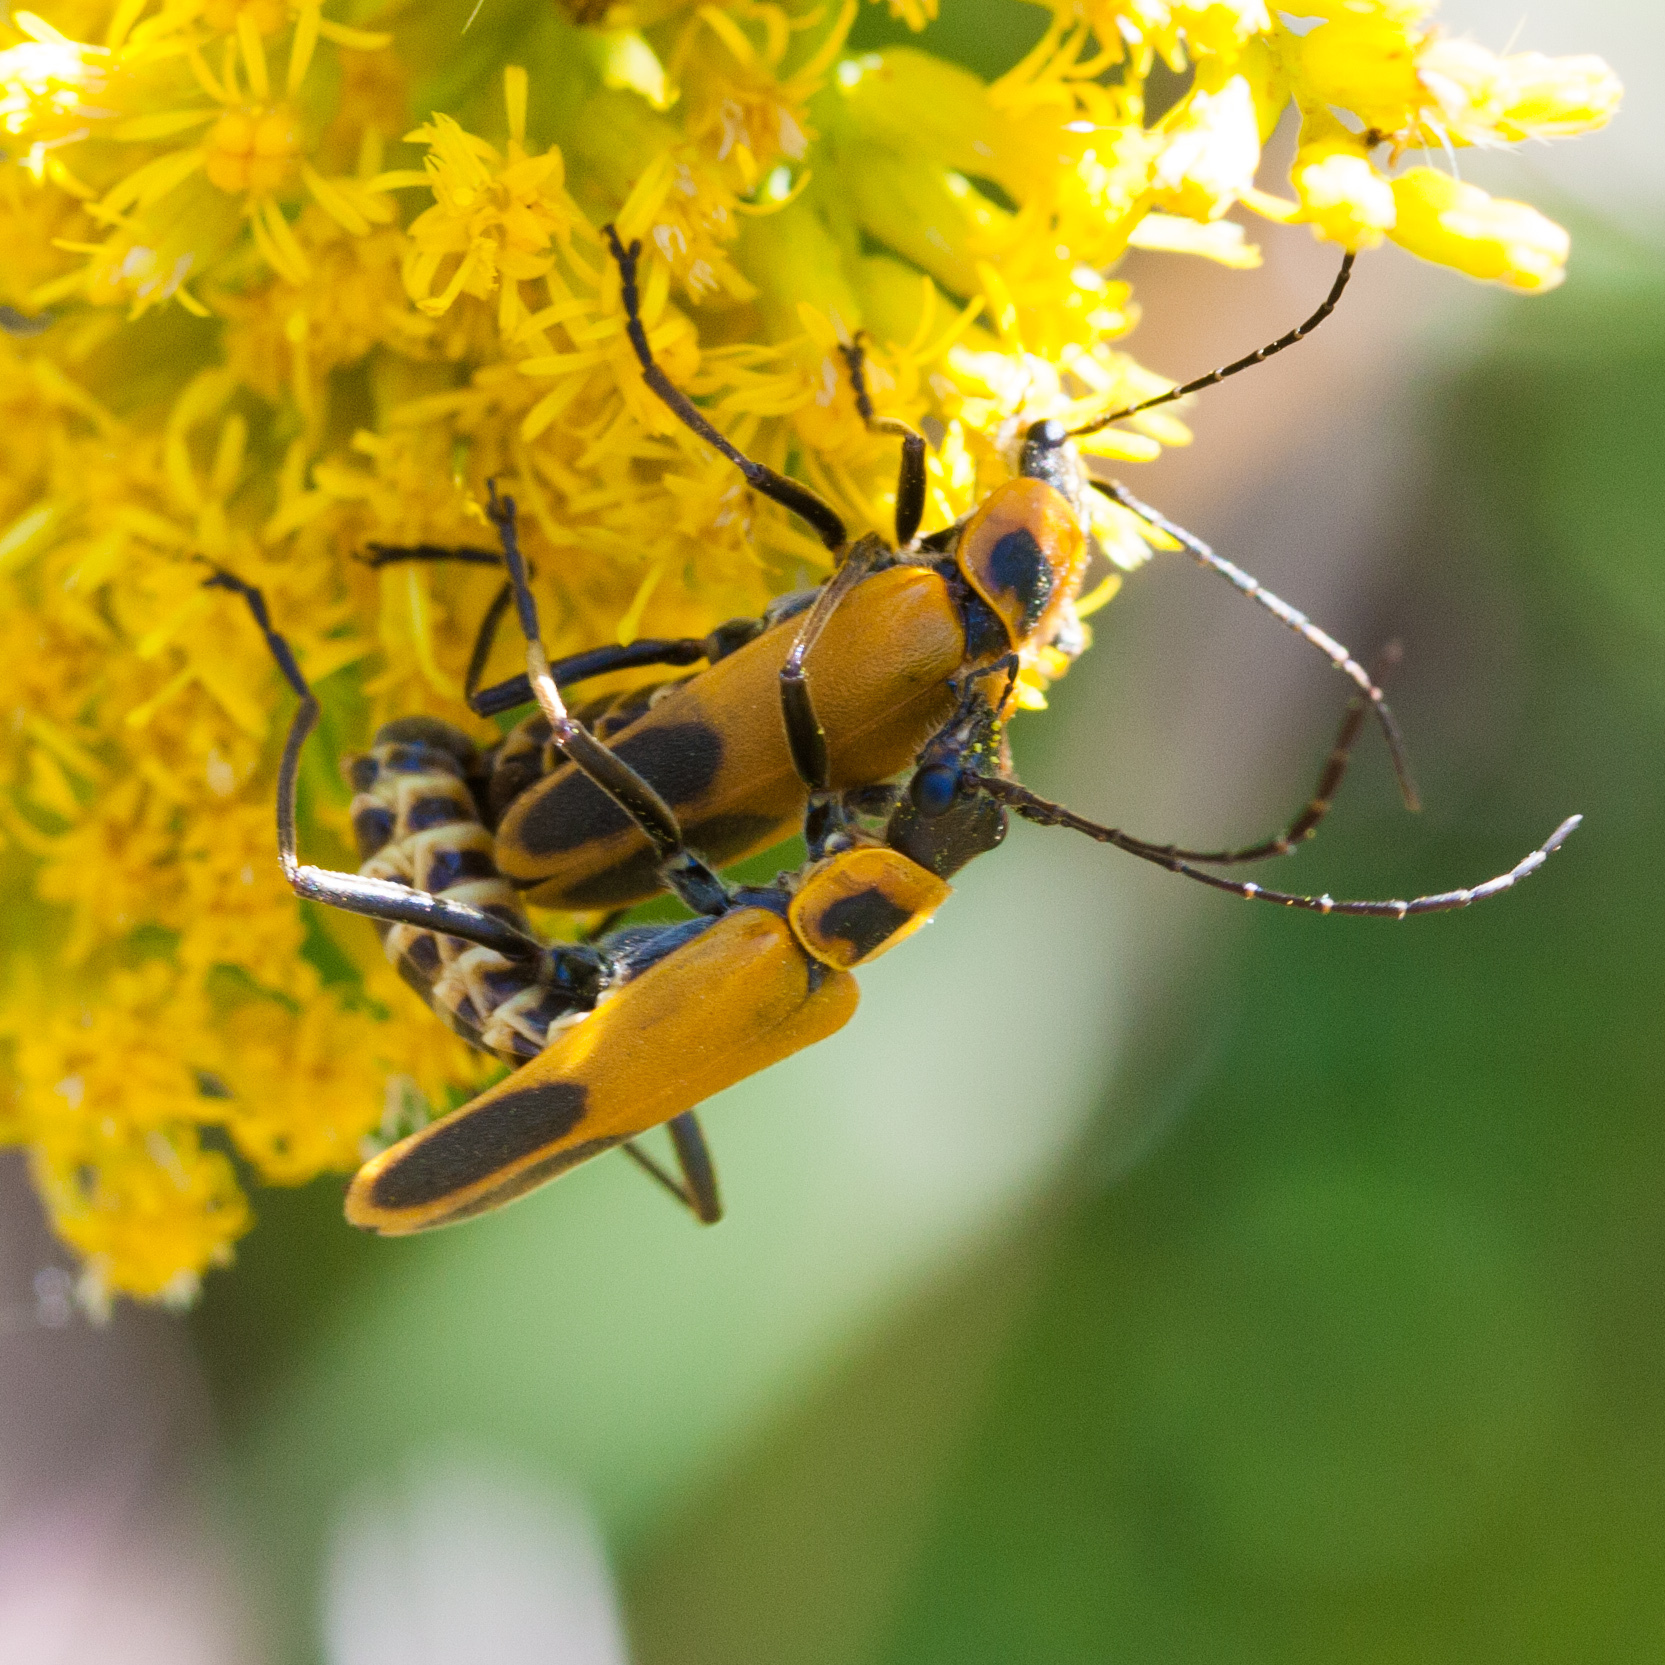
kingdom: Animalia
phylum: Arthropoda
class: Insecta
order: Coleoptera
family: Cantharidae
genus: Chauliognathus
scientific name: Chauliognathus pensylvanicus
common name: Goldenrod soldier beetle
